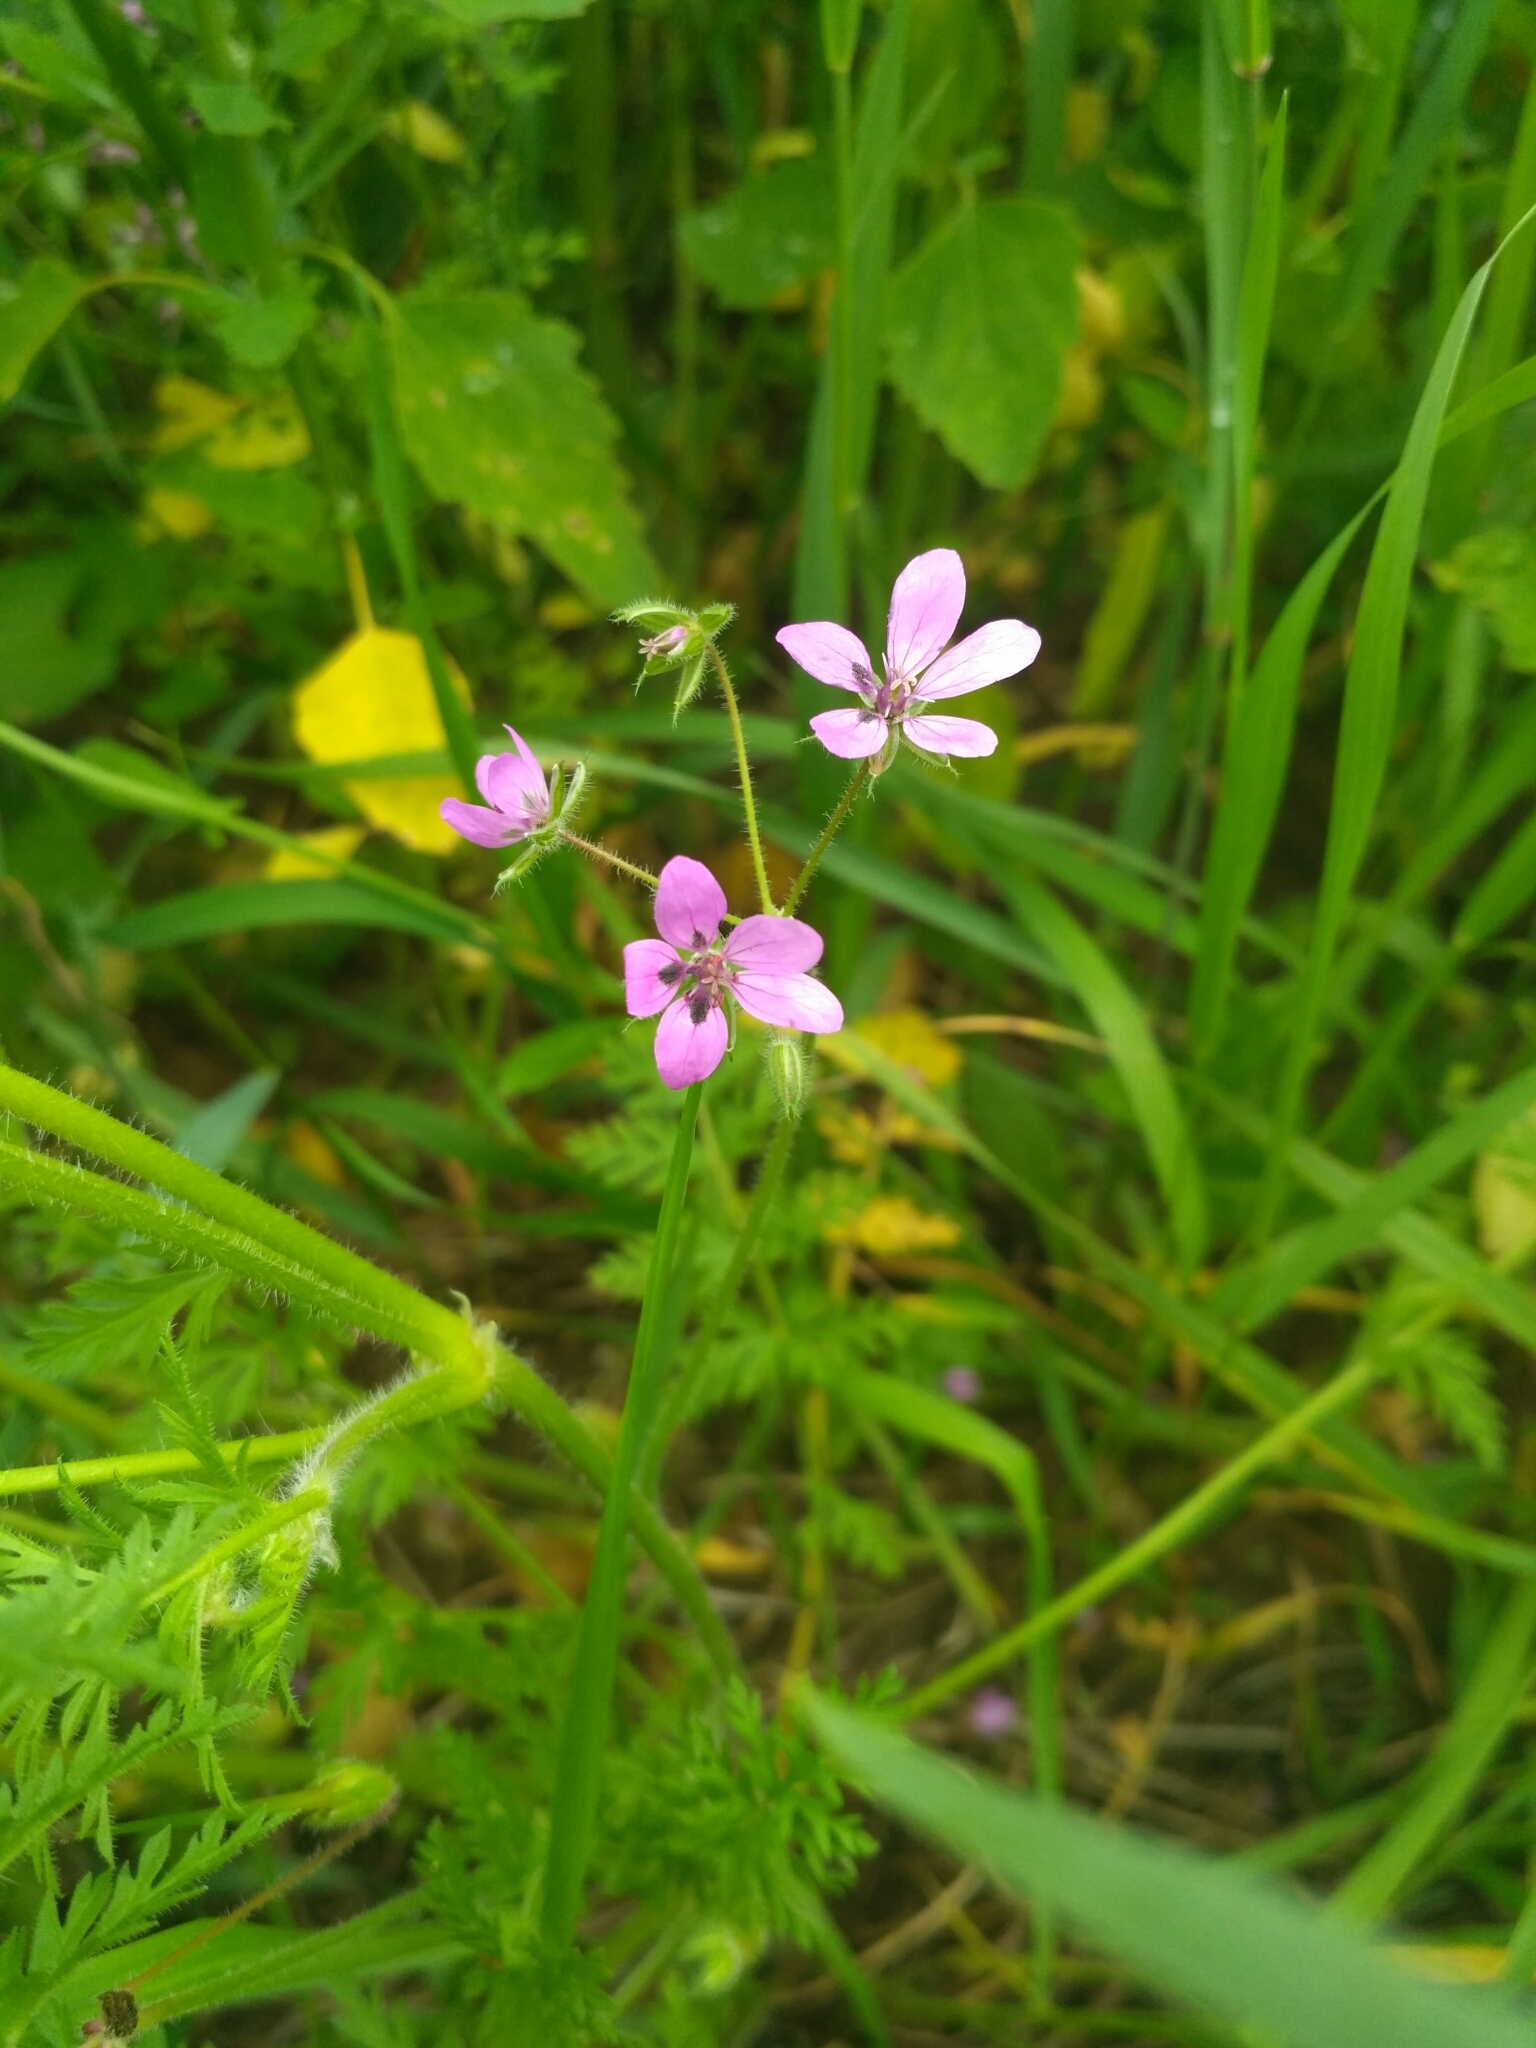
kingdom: Plantae
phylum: Tracheophyta
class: Magnoliopsida
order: Geraniales
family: Geraniaceae
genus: Erodium
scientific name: Erodium cicutarium
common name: Common stork's-bill
